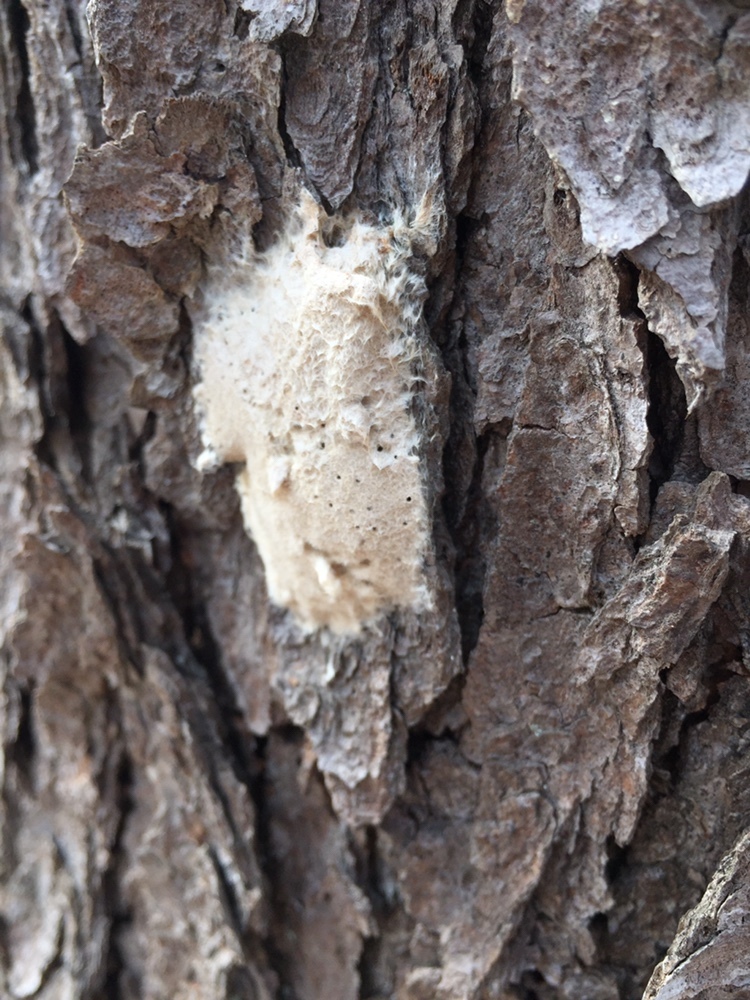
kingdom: Animalia
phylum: Arthropoda
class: Insecta
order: Lepidoptera
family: Erebidae
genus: Lymantria
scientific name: Lymantria dispar
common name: Gypsy moth
